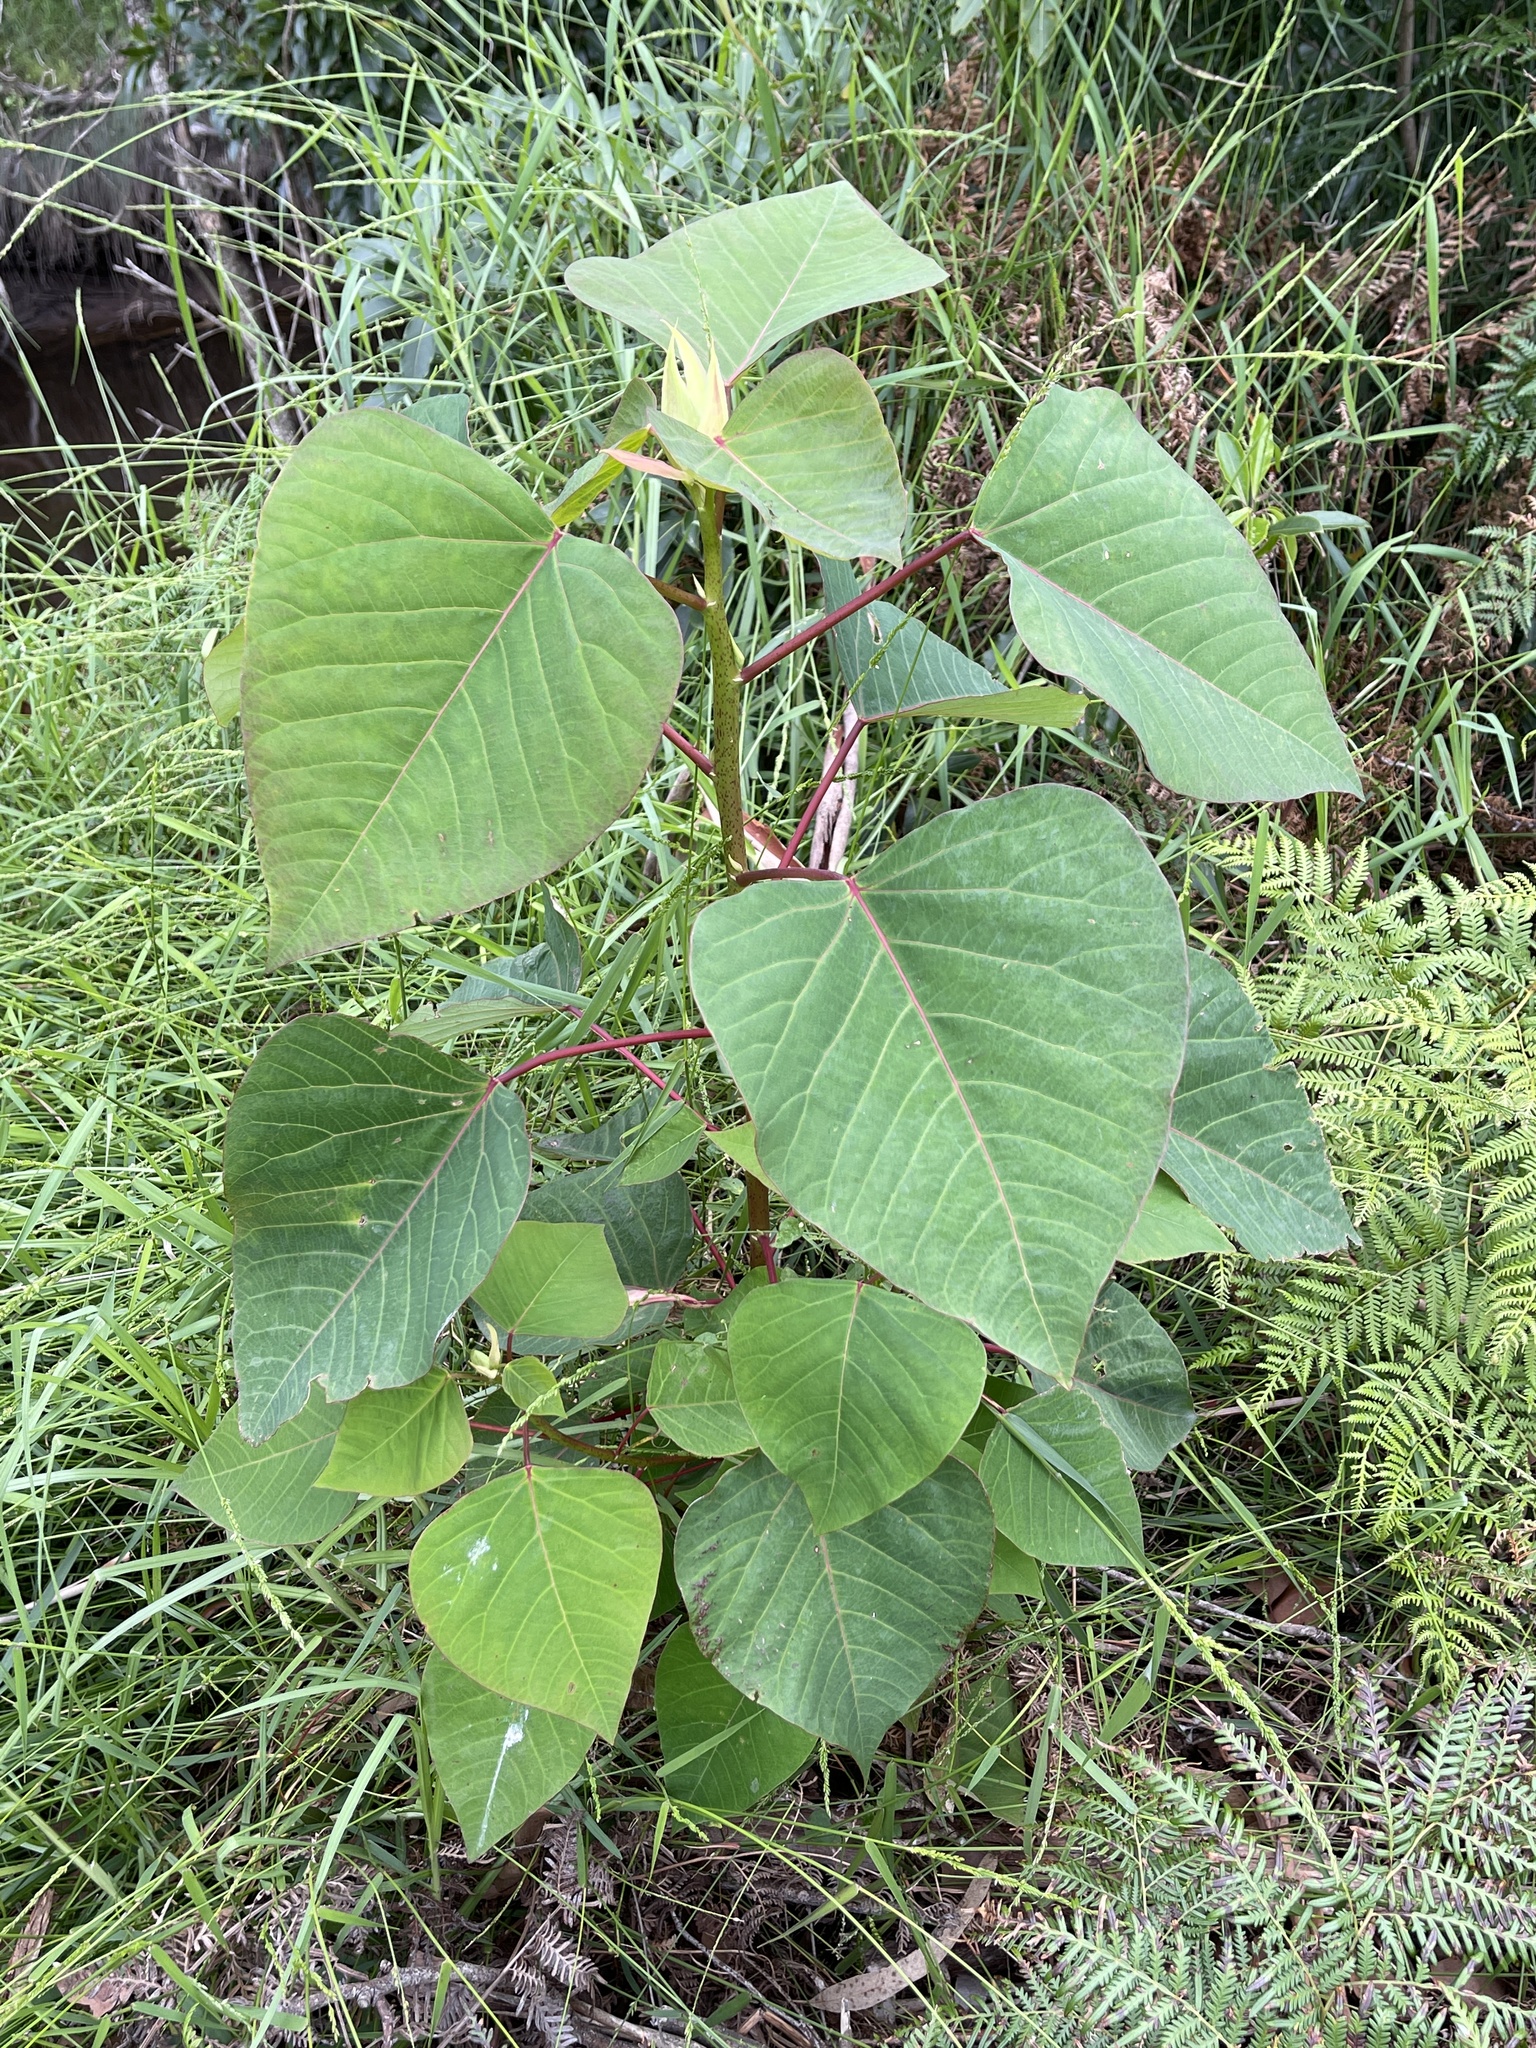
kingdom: Plantae
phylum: Tracheophyta
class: Magnoliopsida
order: Malpighiales
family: Euphorbiaceae
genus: Homalanthus
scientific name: Homalanthus populifolius
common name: Queensland poplar
